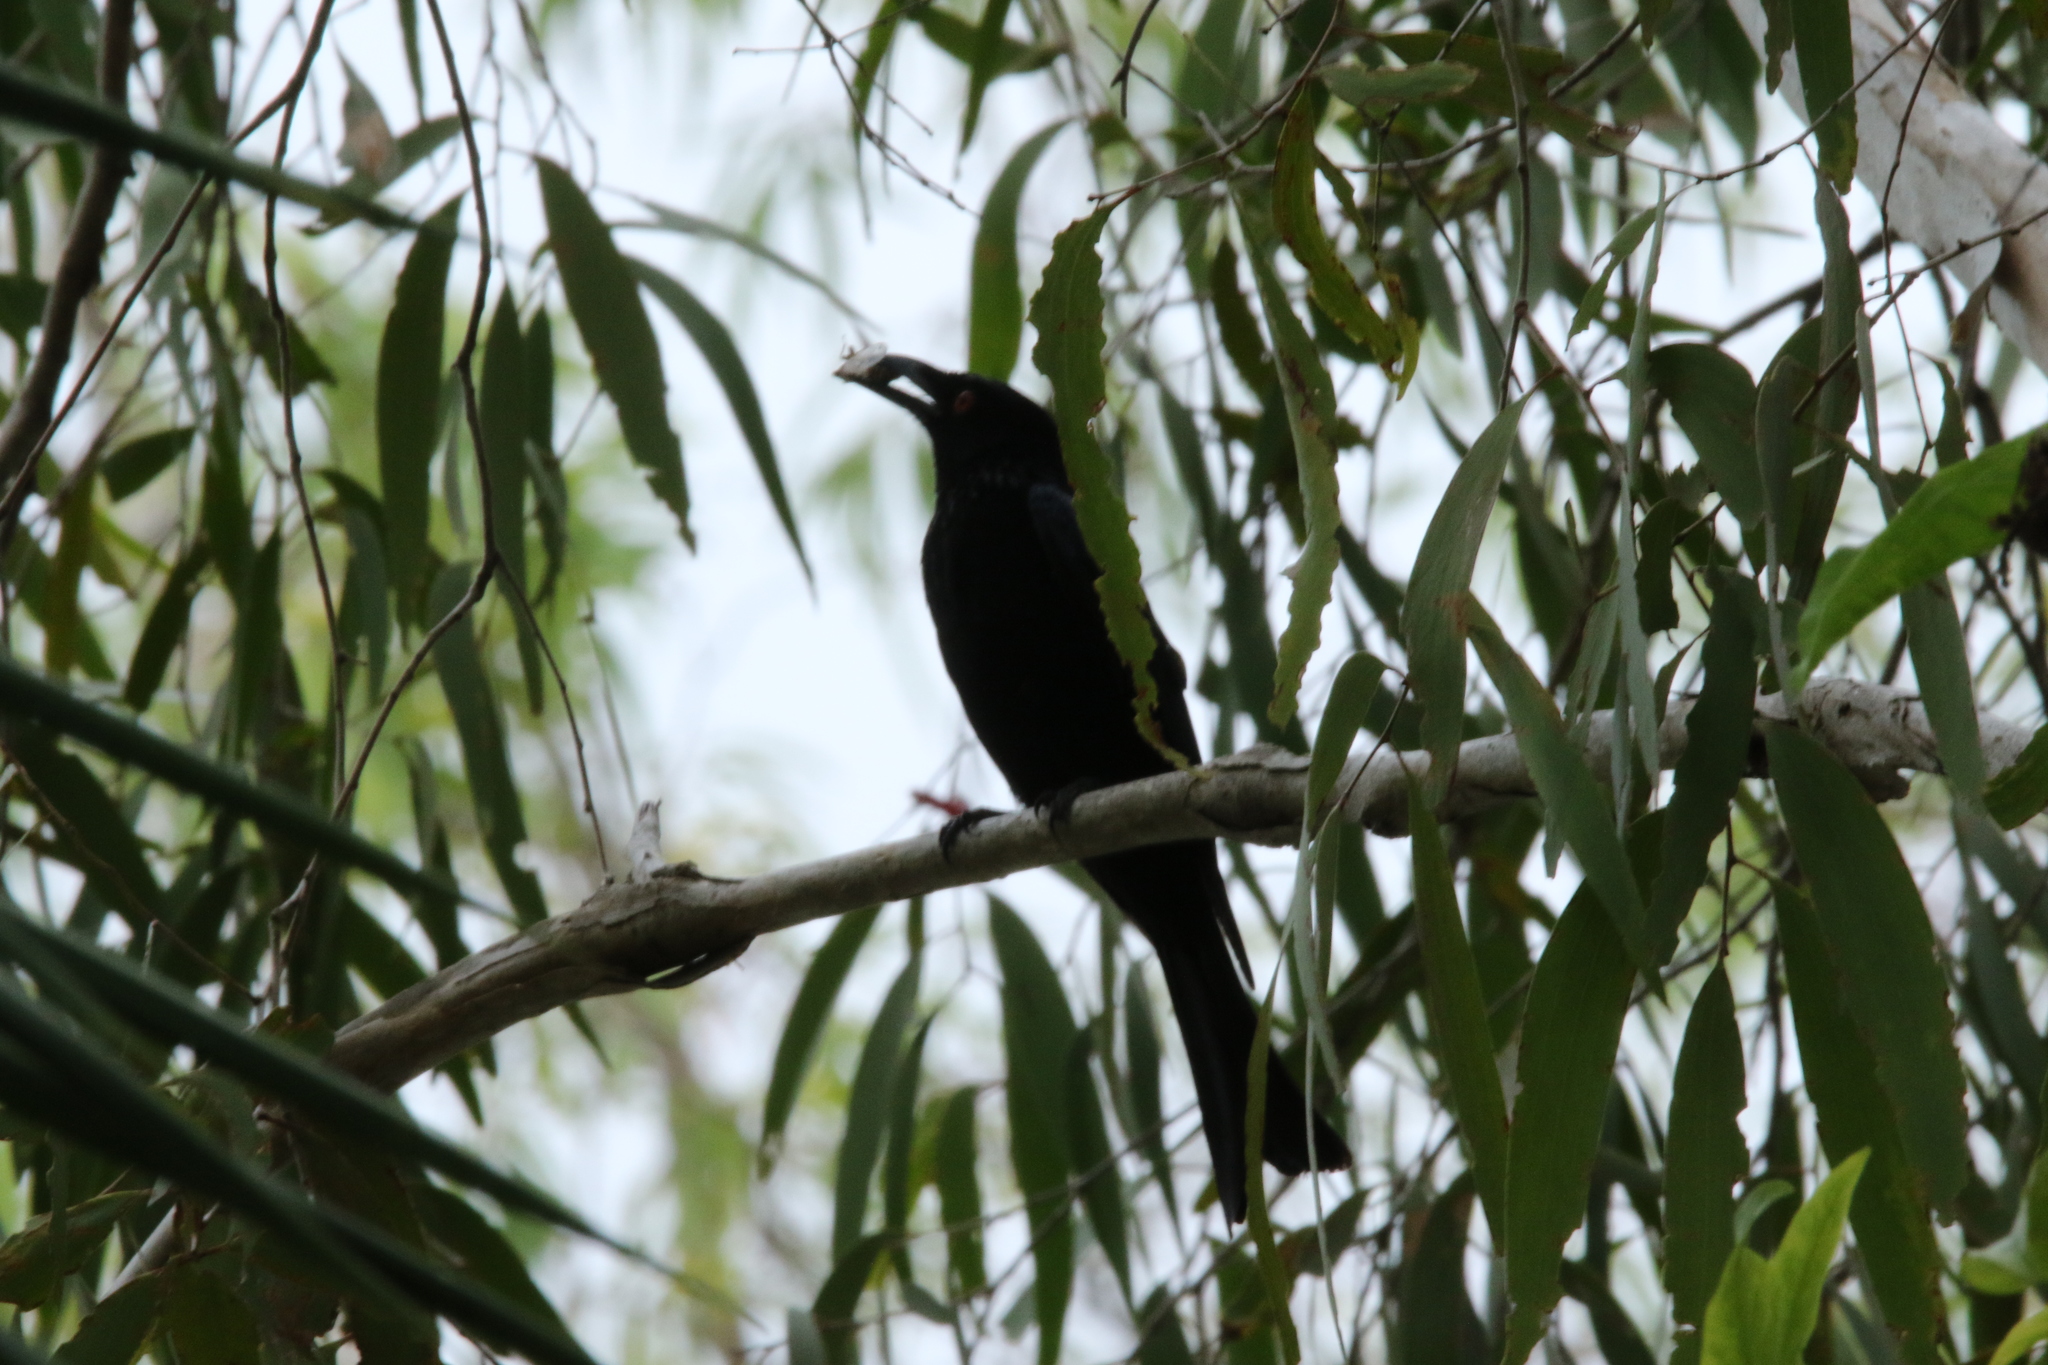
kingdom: Animalia
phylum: Chordata
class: Aves
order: Passeriformes
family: Dicruridae
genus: Dicrurus
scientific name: Dicrurus bracteatus
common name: Spangled drongo
